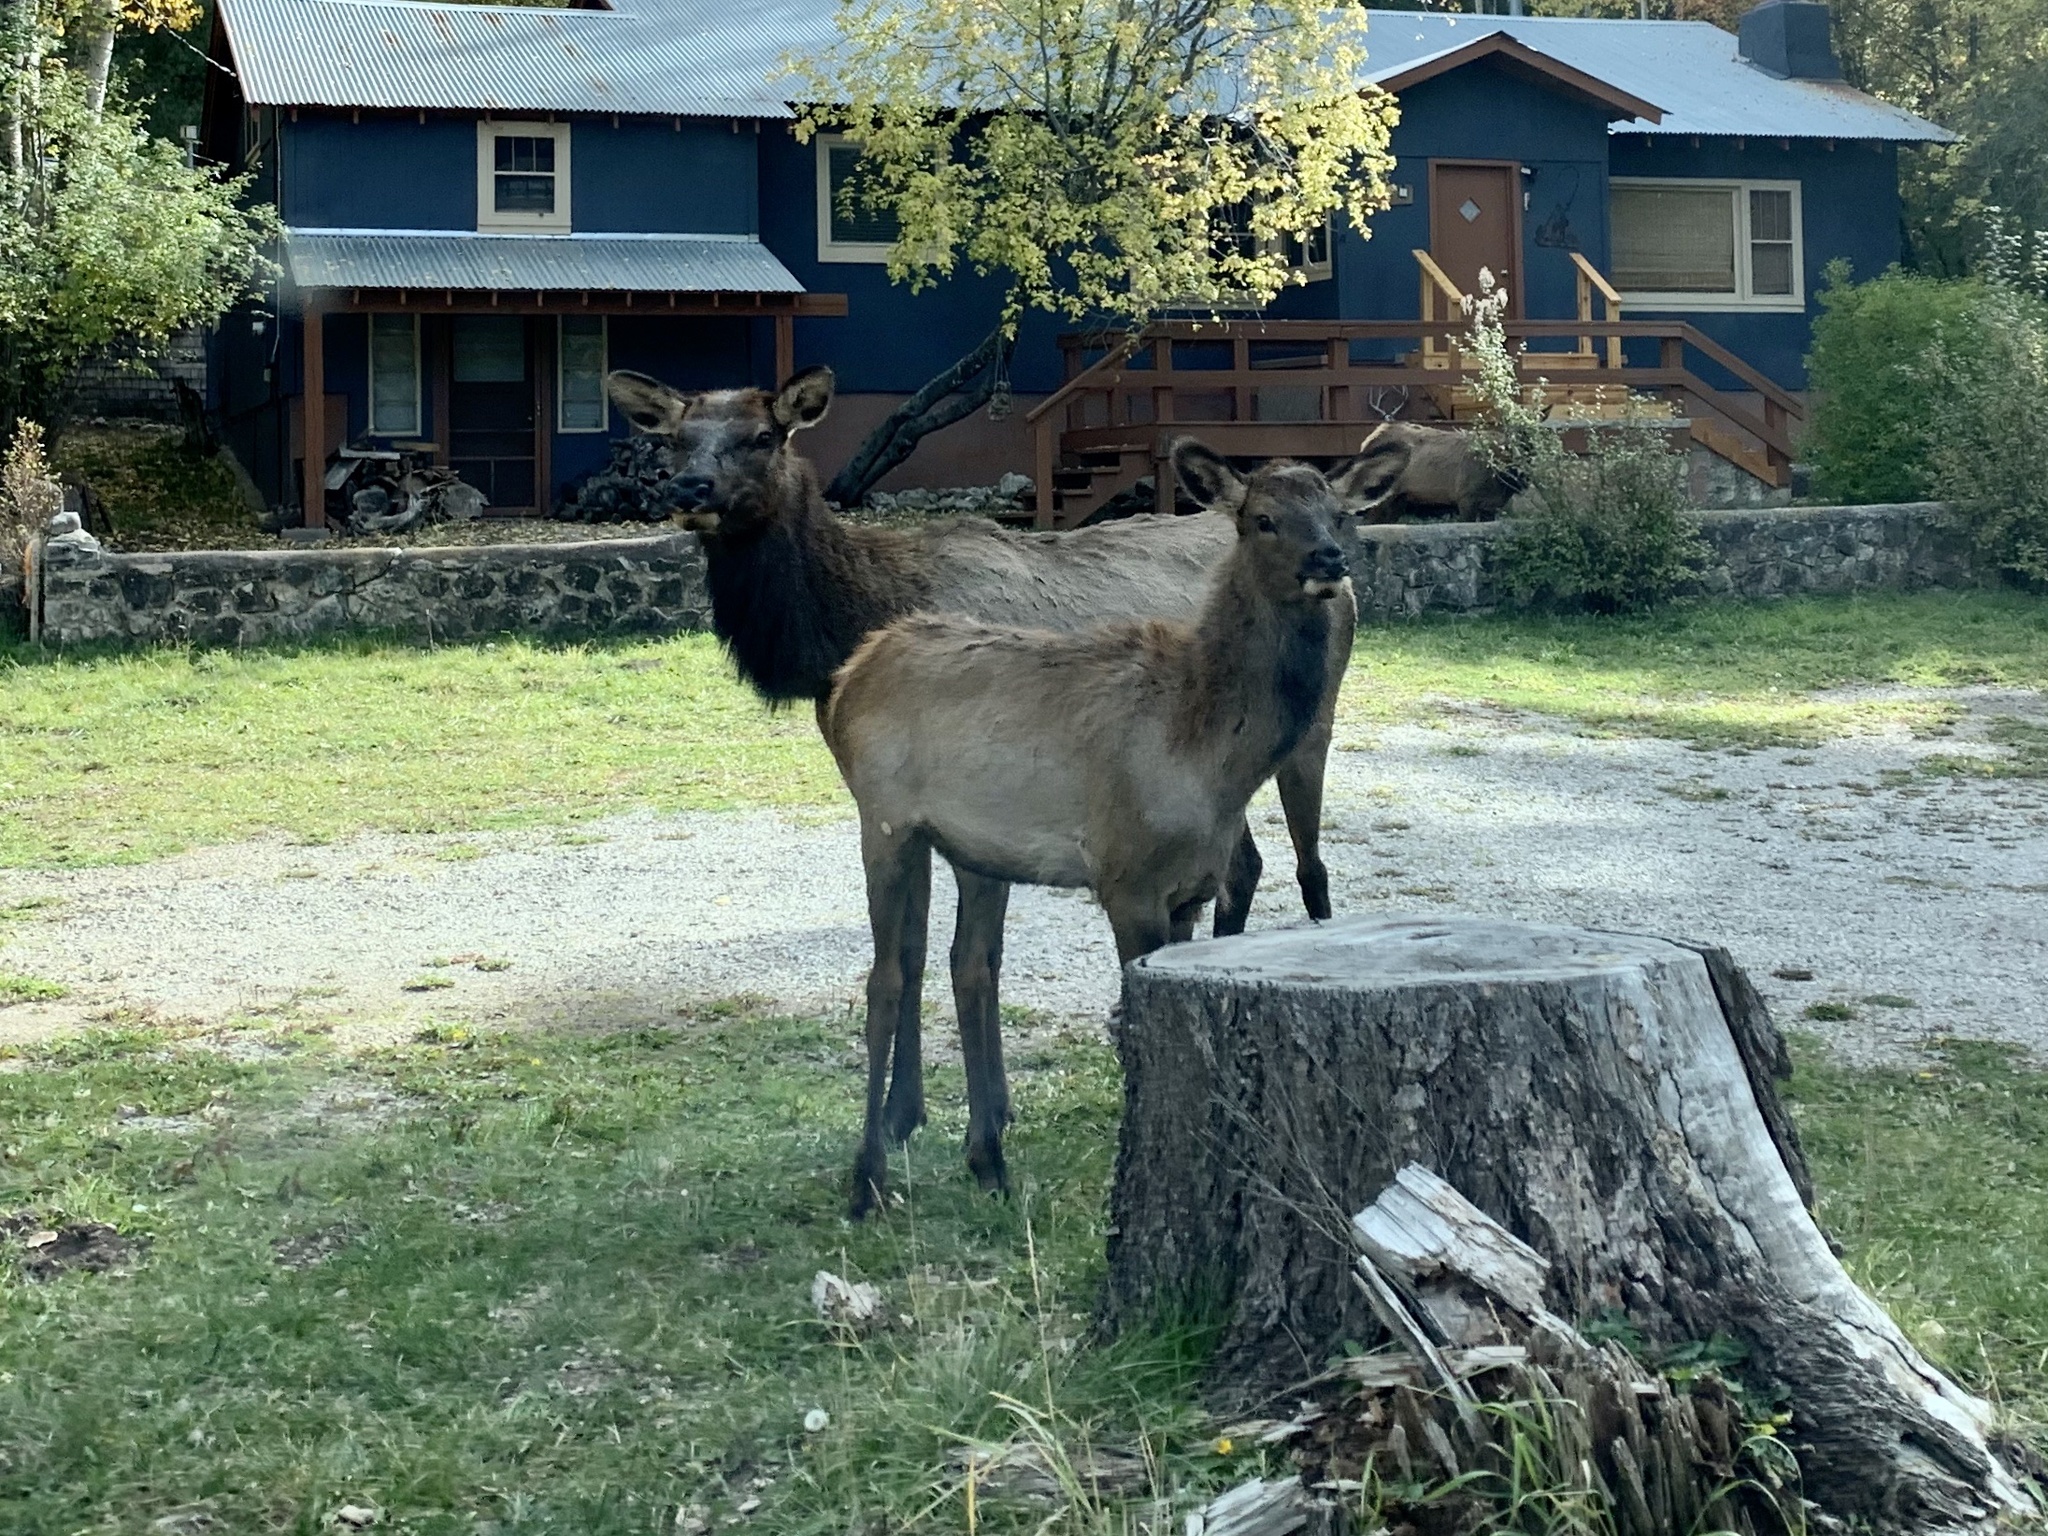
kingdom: Animalia
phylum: Chordata
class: Mammalia
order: Artiodactyla
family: Cervidae
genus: Cervus
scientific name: Cervus elaphus
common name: Red deer
